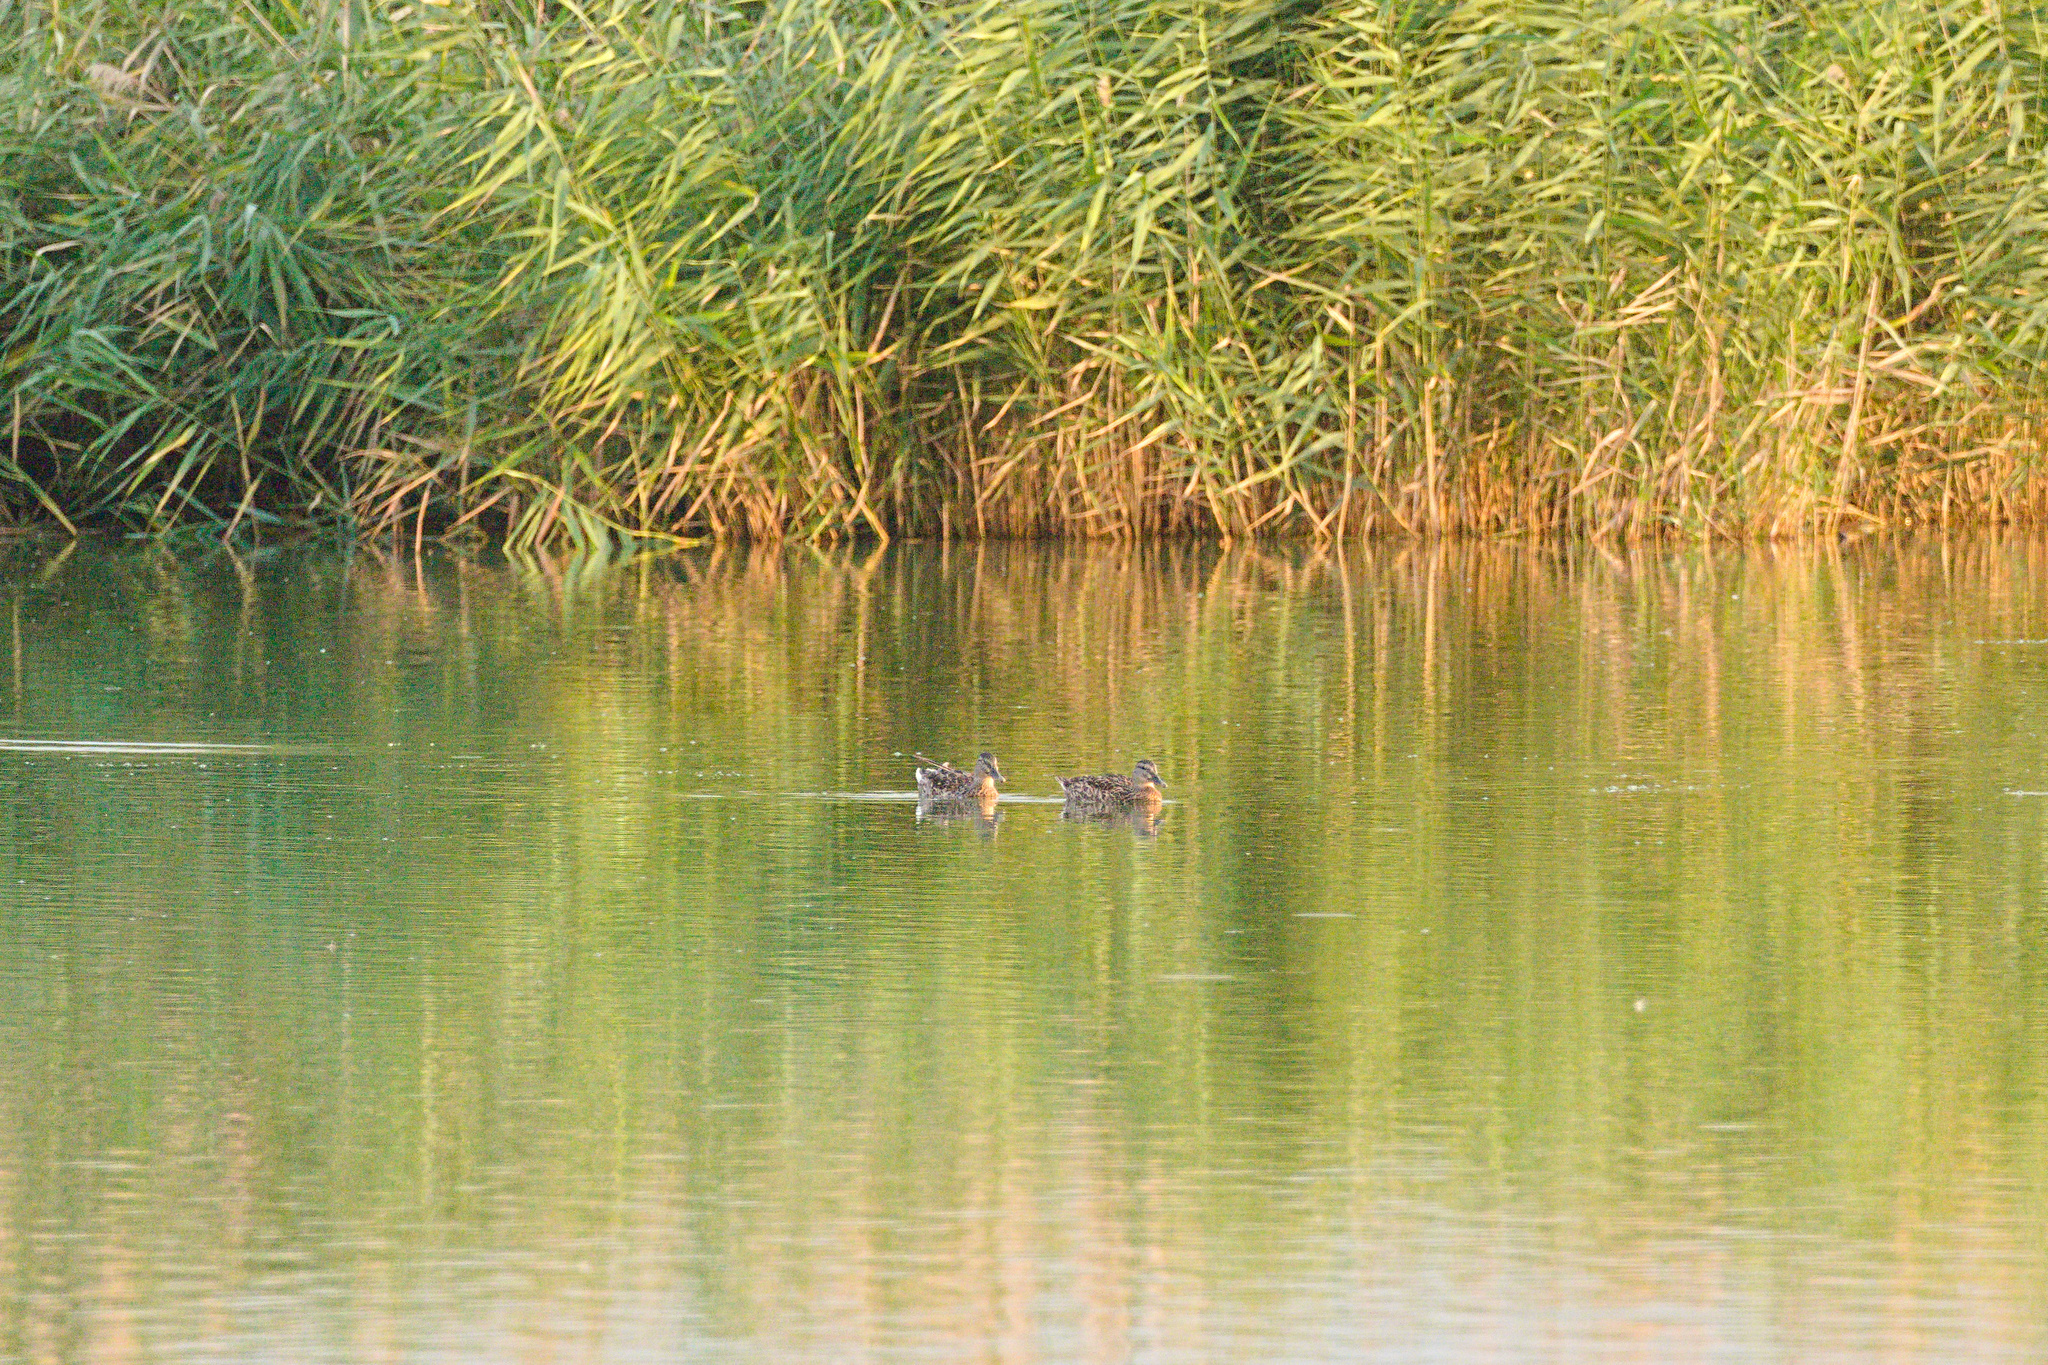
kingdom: Animalia
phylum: Chordata
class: Aves
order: Anseriformes
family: Anatidae
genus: Anas
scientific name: Anas platyrhynchos
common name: Mallard
